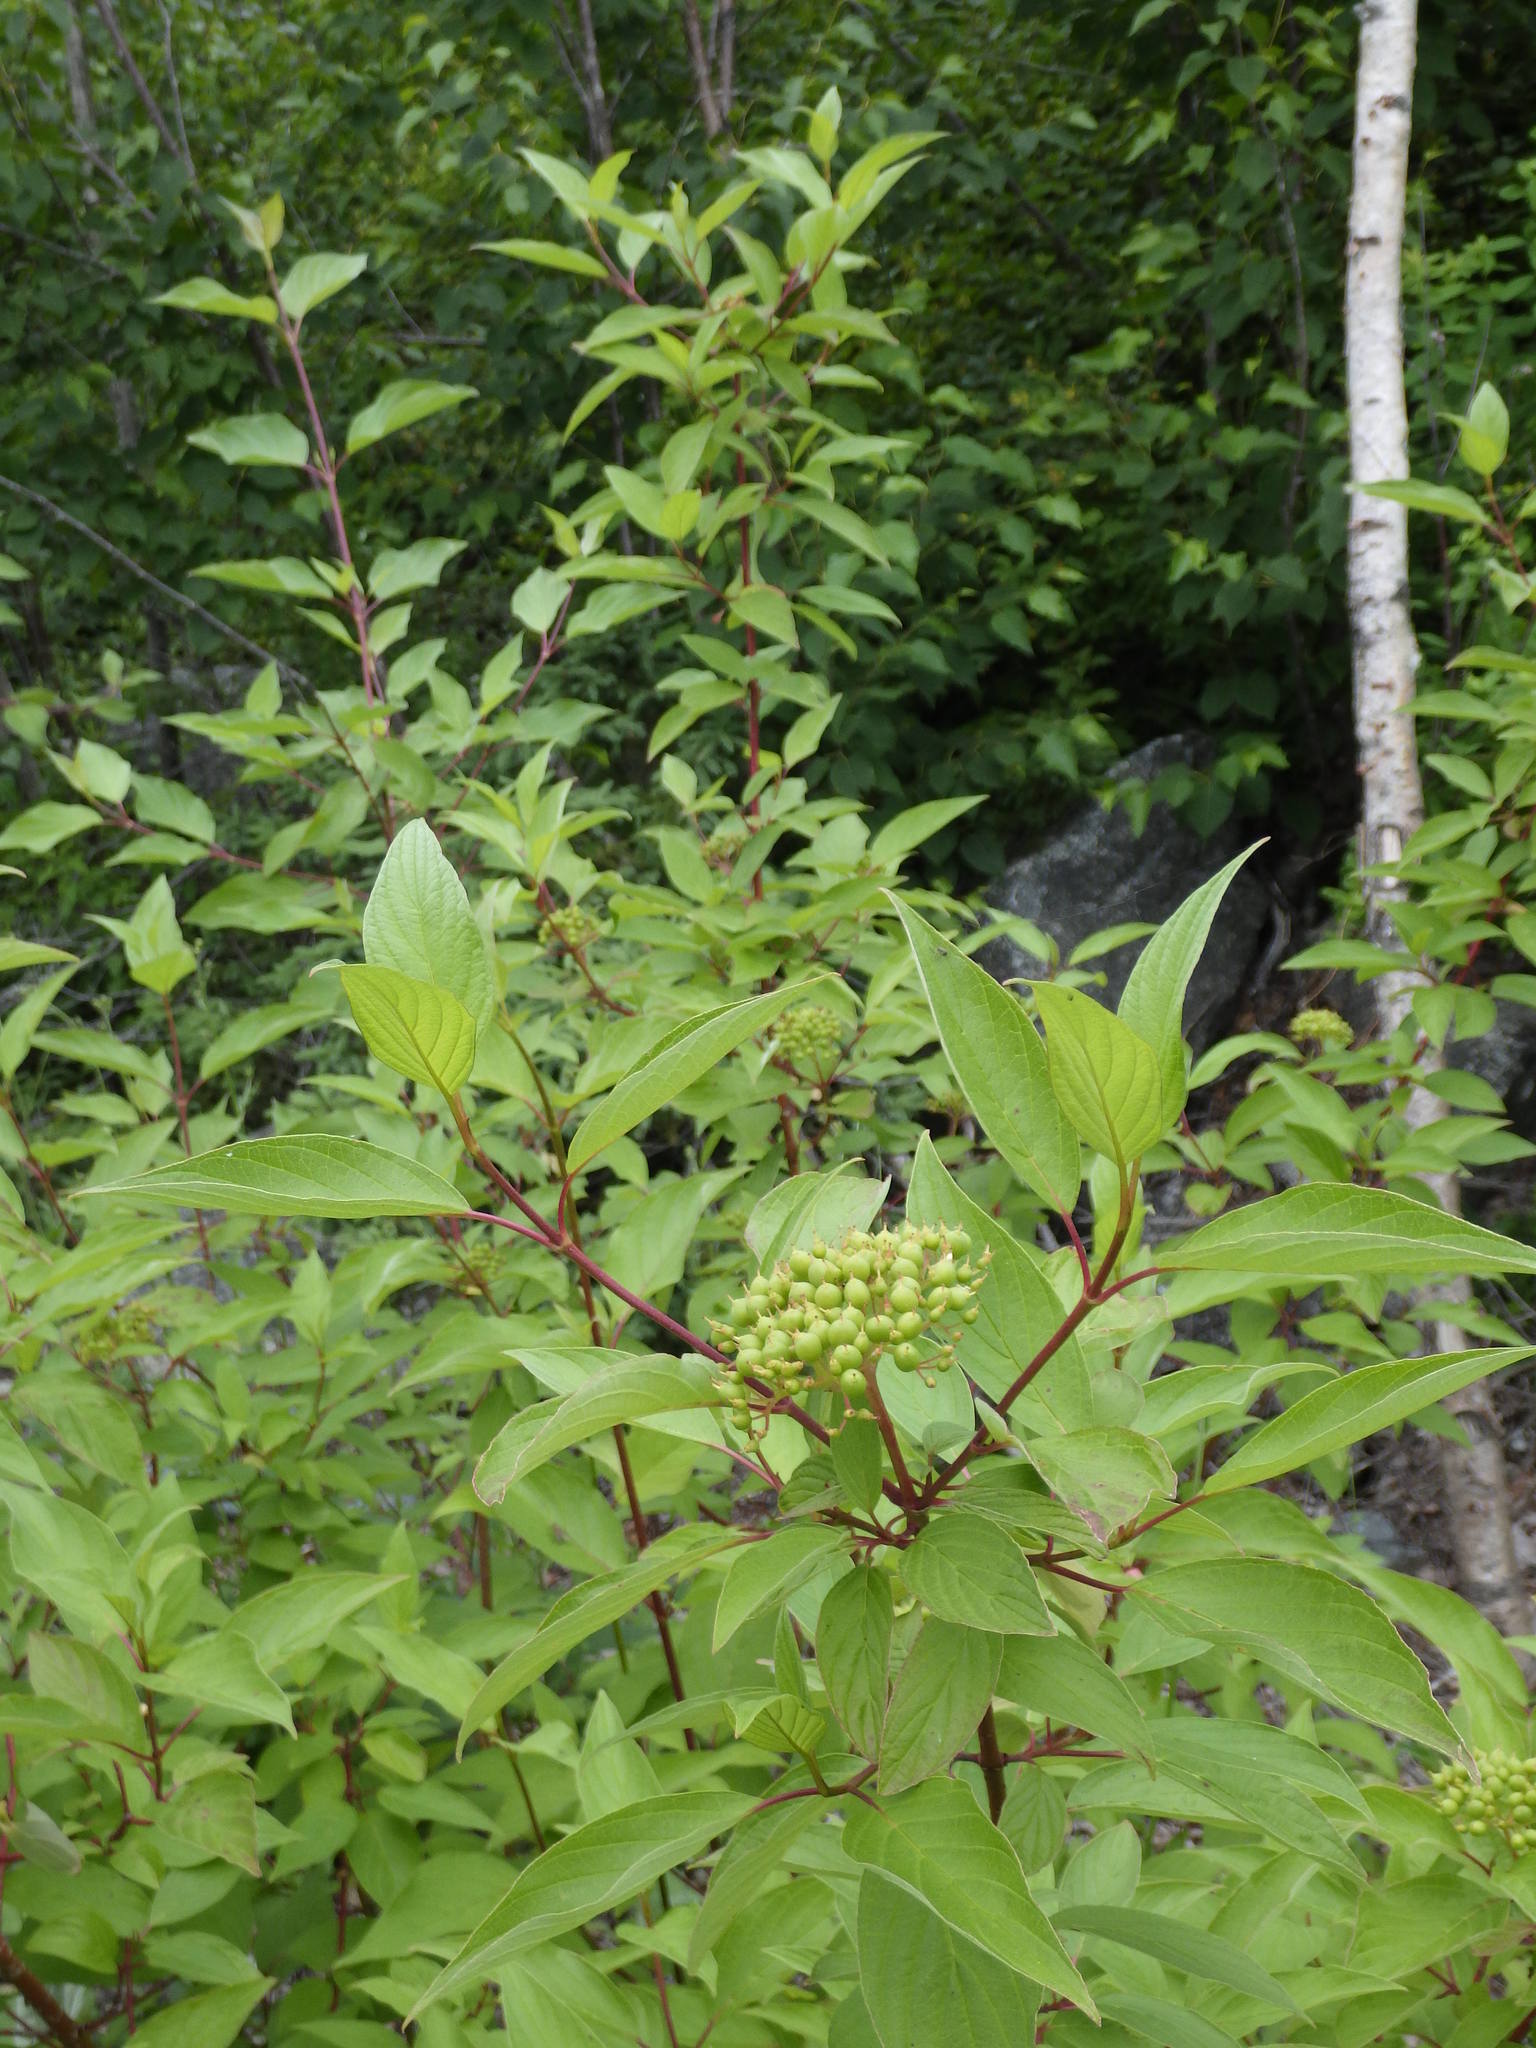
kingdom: Plantae
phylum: Tracheophyta
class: Magnoliopsida
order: Cornales
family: Cornaceae
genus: Cornus
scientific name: Cornus sericea
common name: Red-osier dogwood
